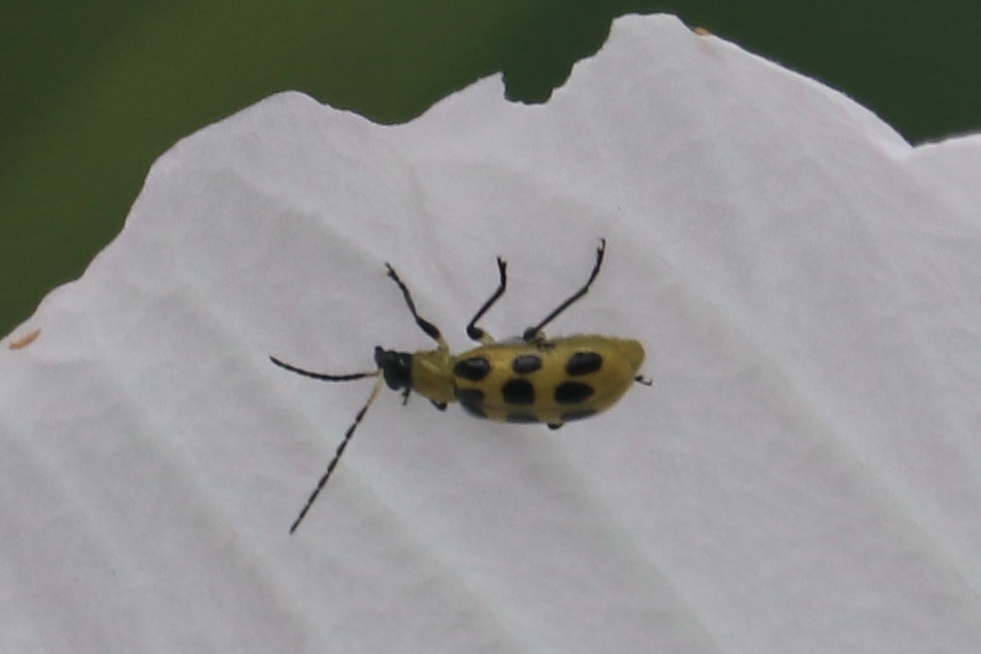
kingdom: Animalia
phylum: Arthropoda
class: Insecta
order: Coleoptera
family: Chrysomelidae
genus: Diabrotica
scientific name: Diabrotica undecimpunctata
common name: Spotted cucumber beetle
